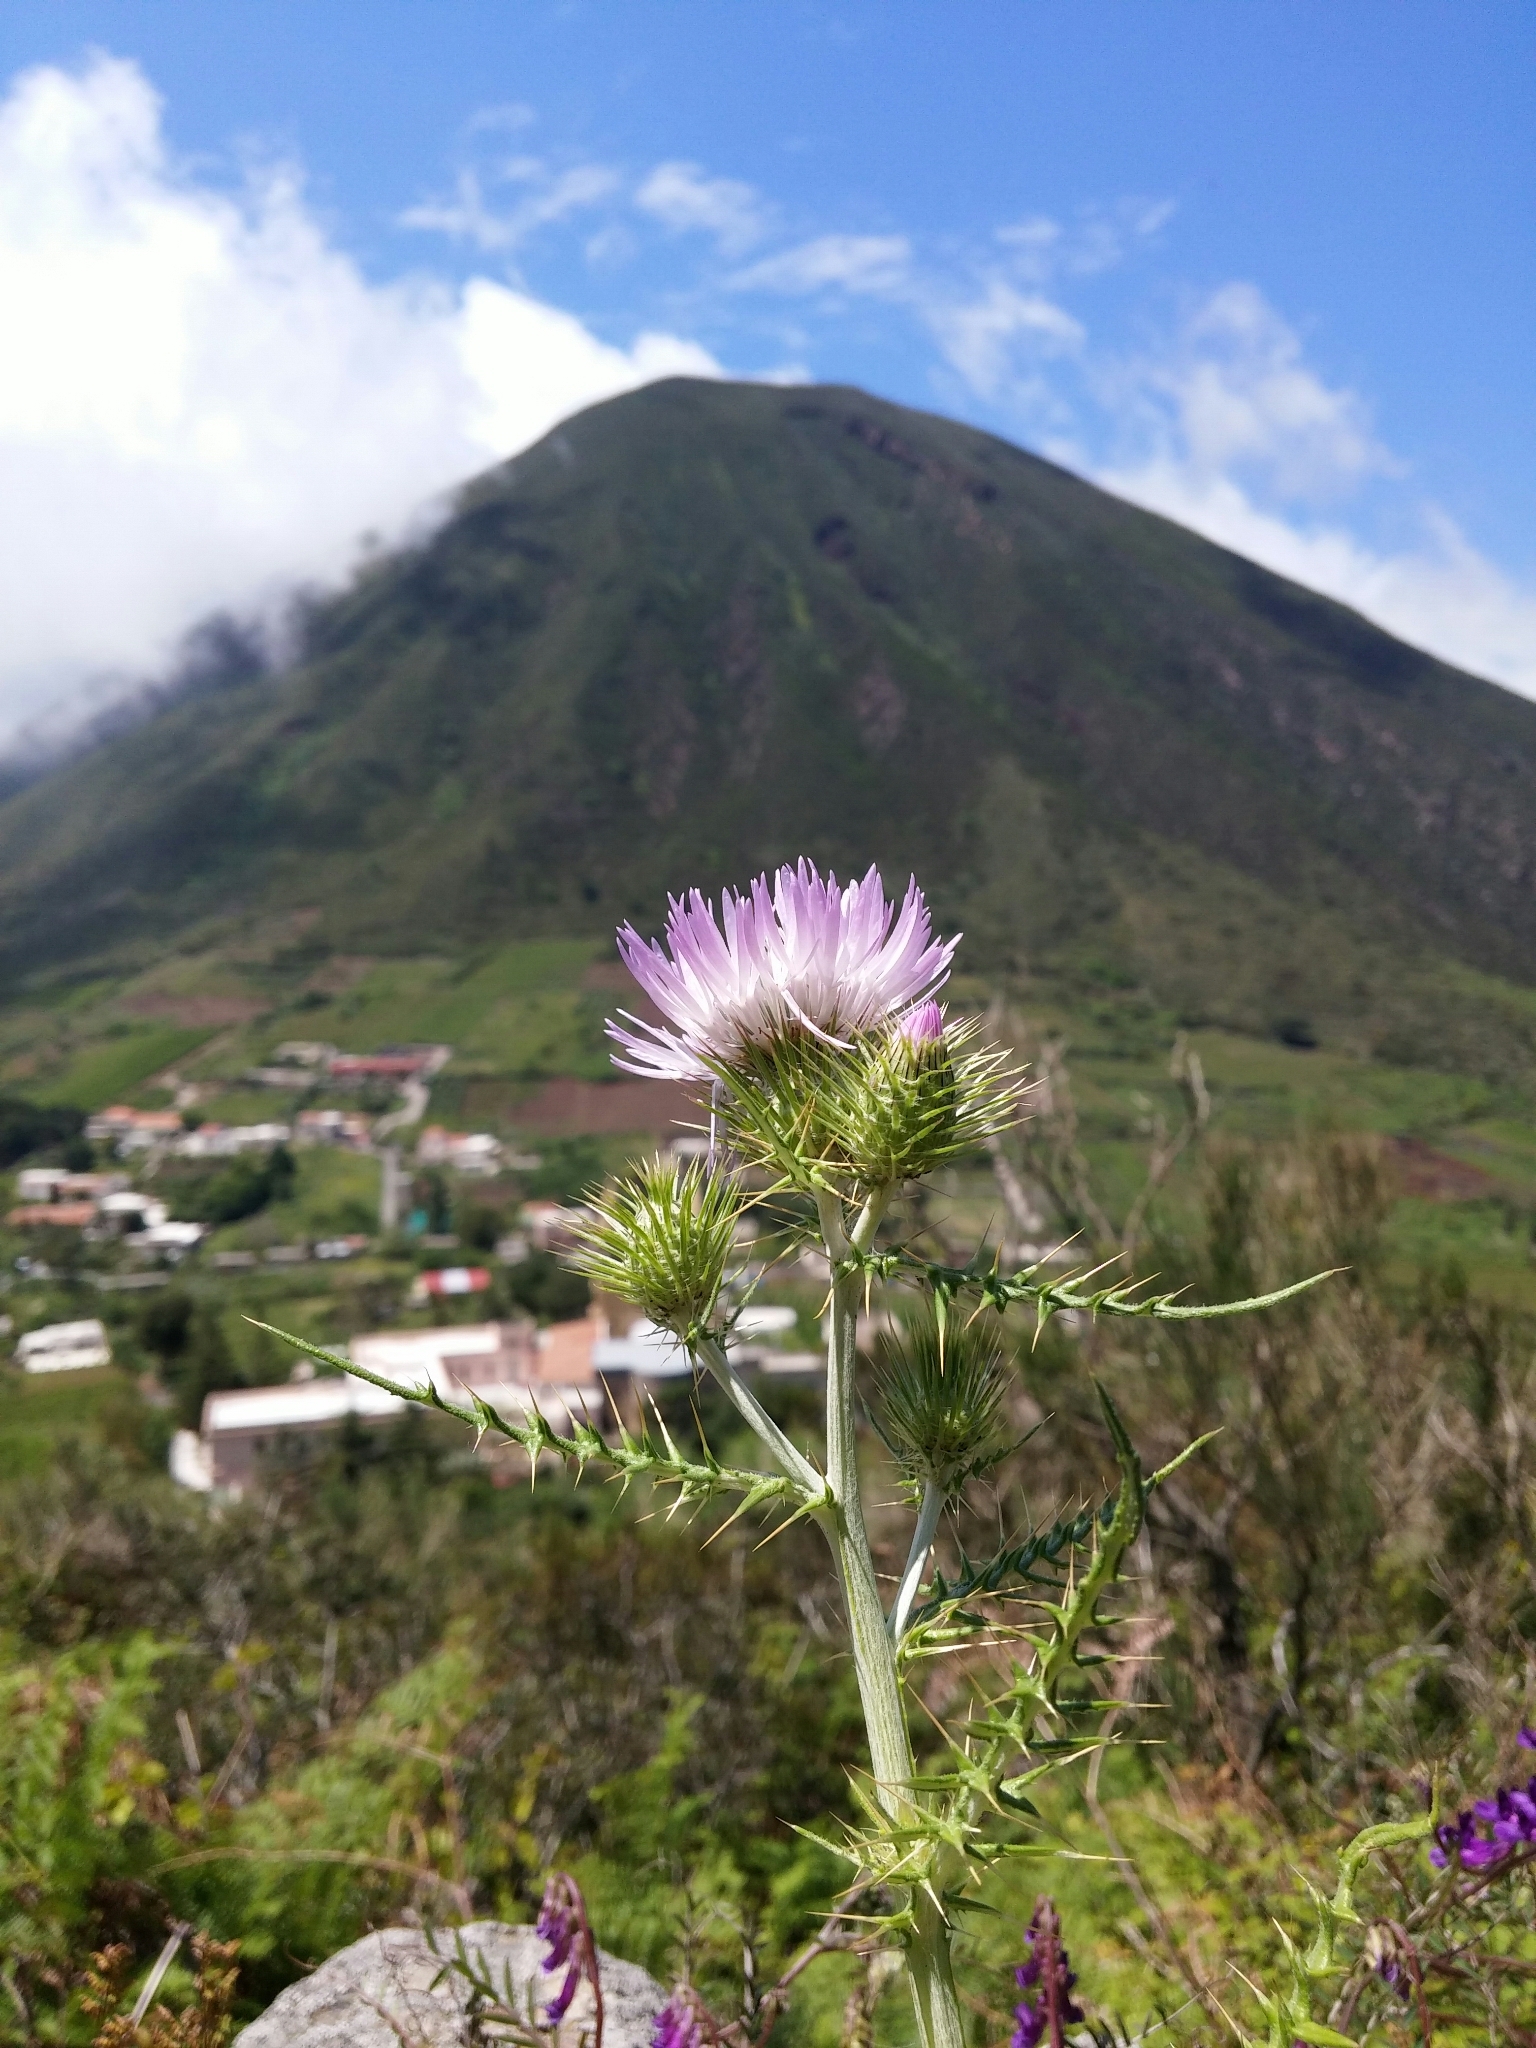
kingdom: Plantae
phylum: Tracheophyta
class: Magnoliopsida
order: Asterales
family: Asteraceae
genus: Galactites
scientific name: Galactites tomentosa
